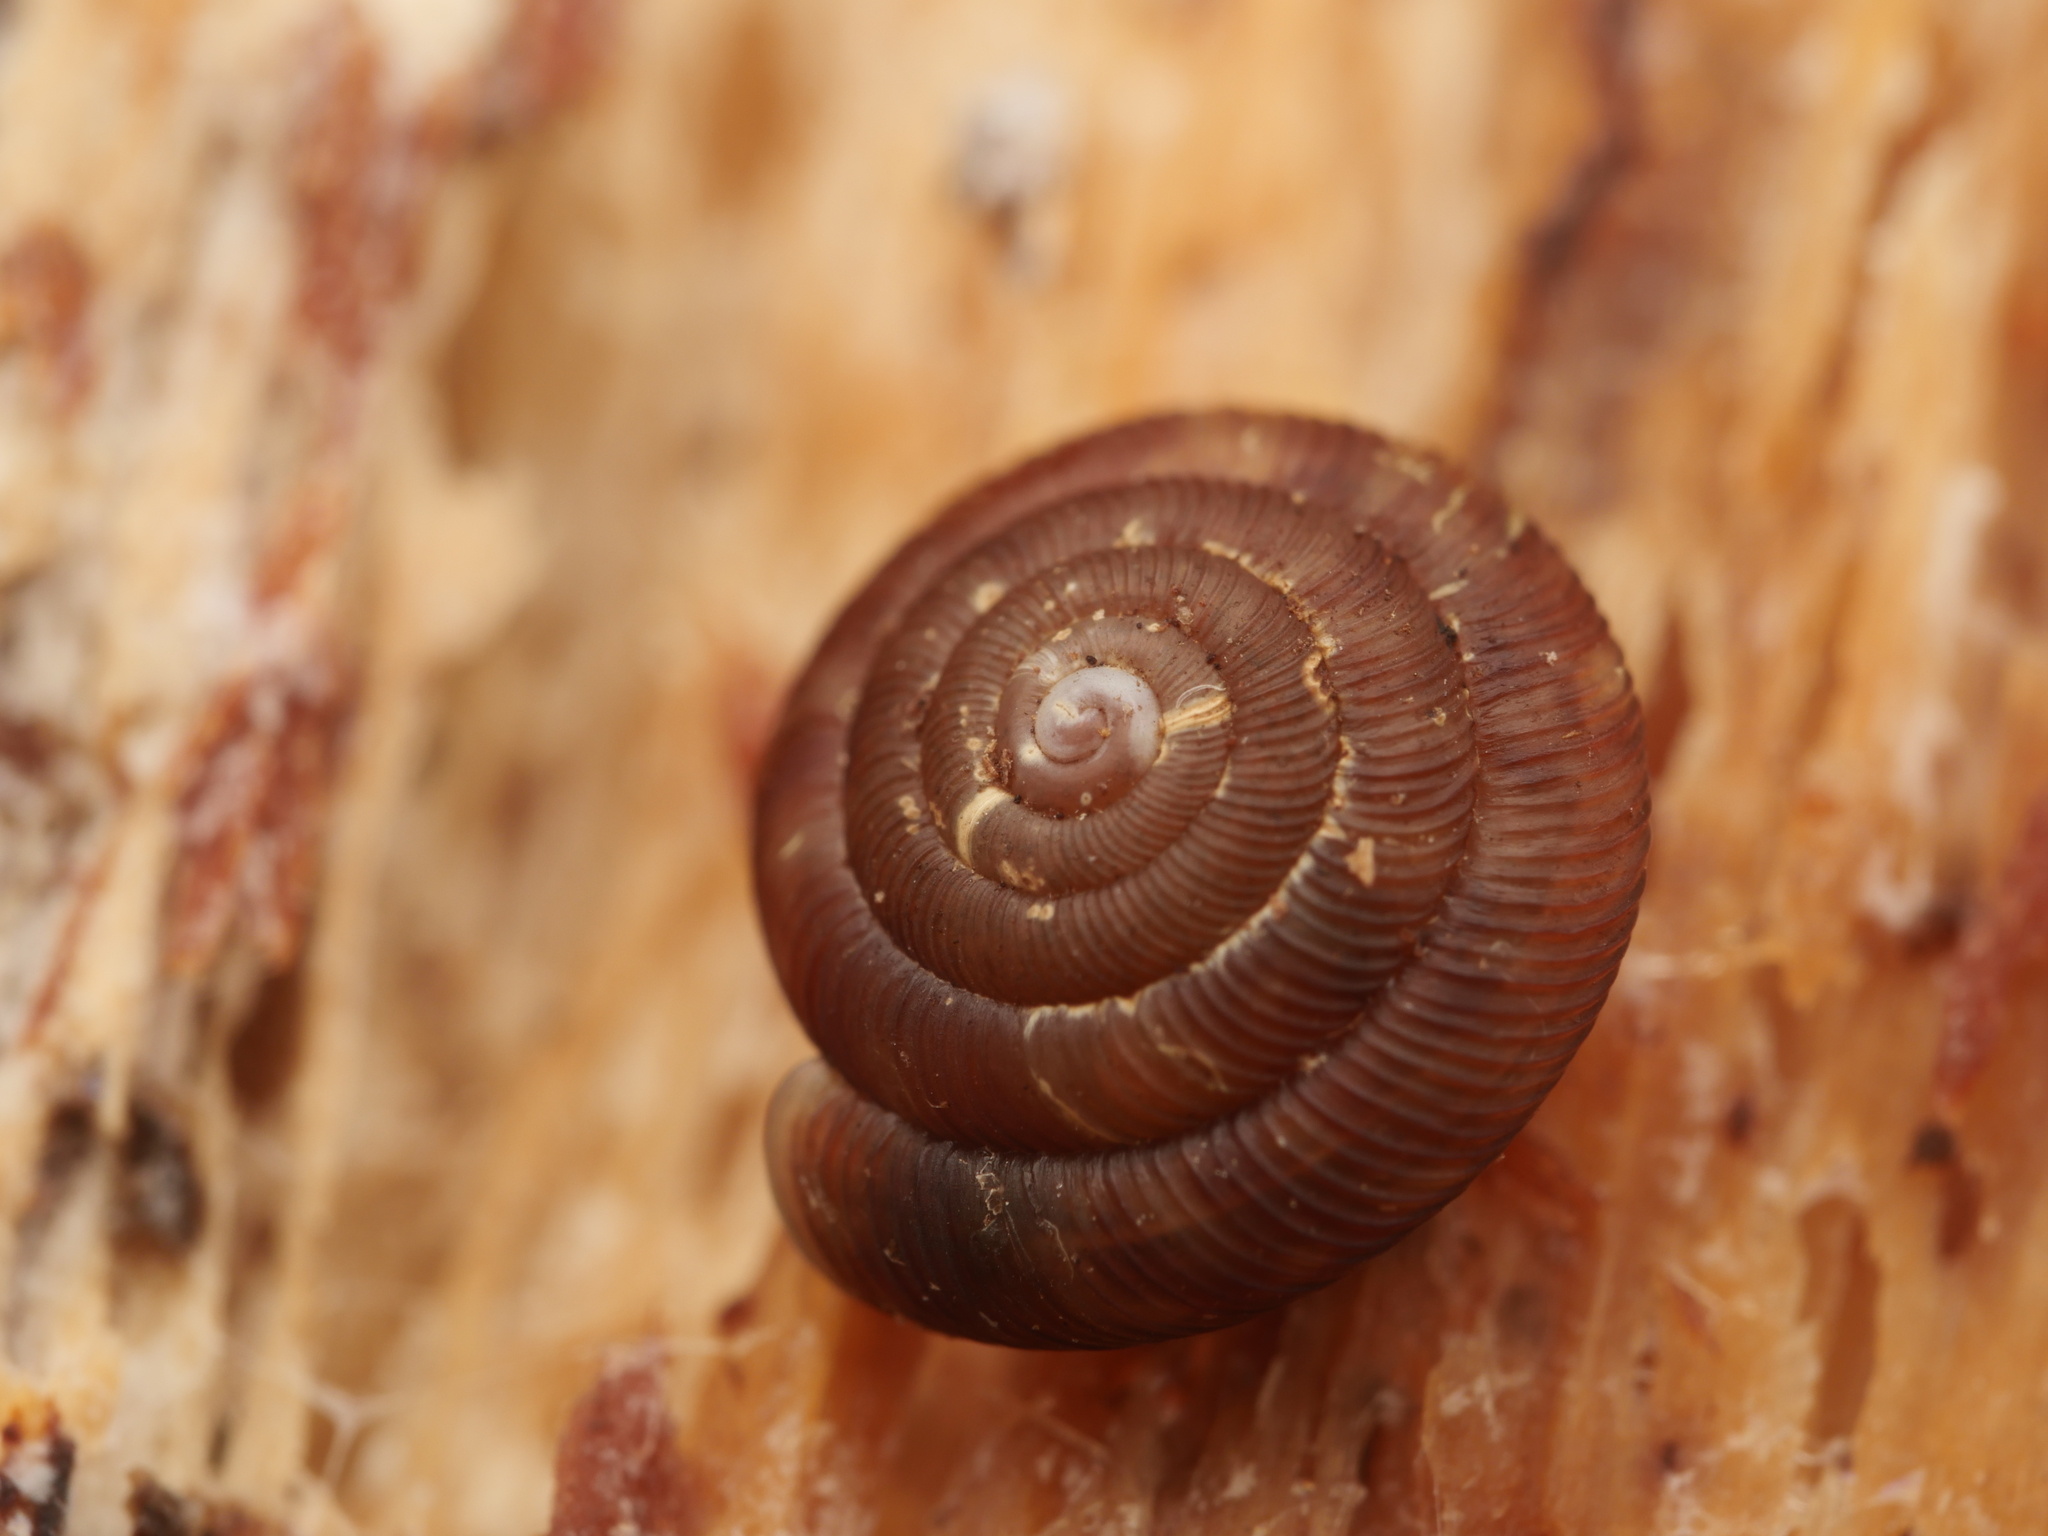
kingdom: Animalia
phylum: Mollusca
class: Gastropoda
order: Stylommatophora
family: Discidae
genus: Discus
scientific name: Discus rotundatus
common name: Rounded snail
